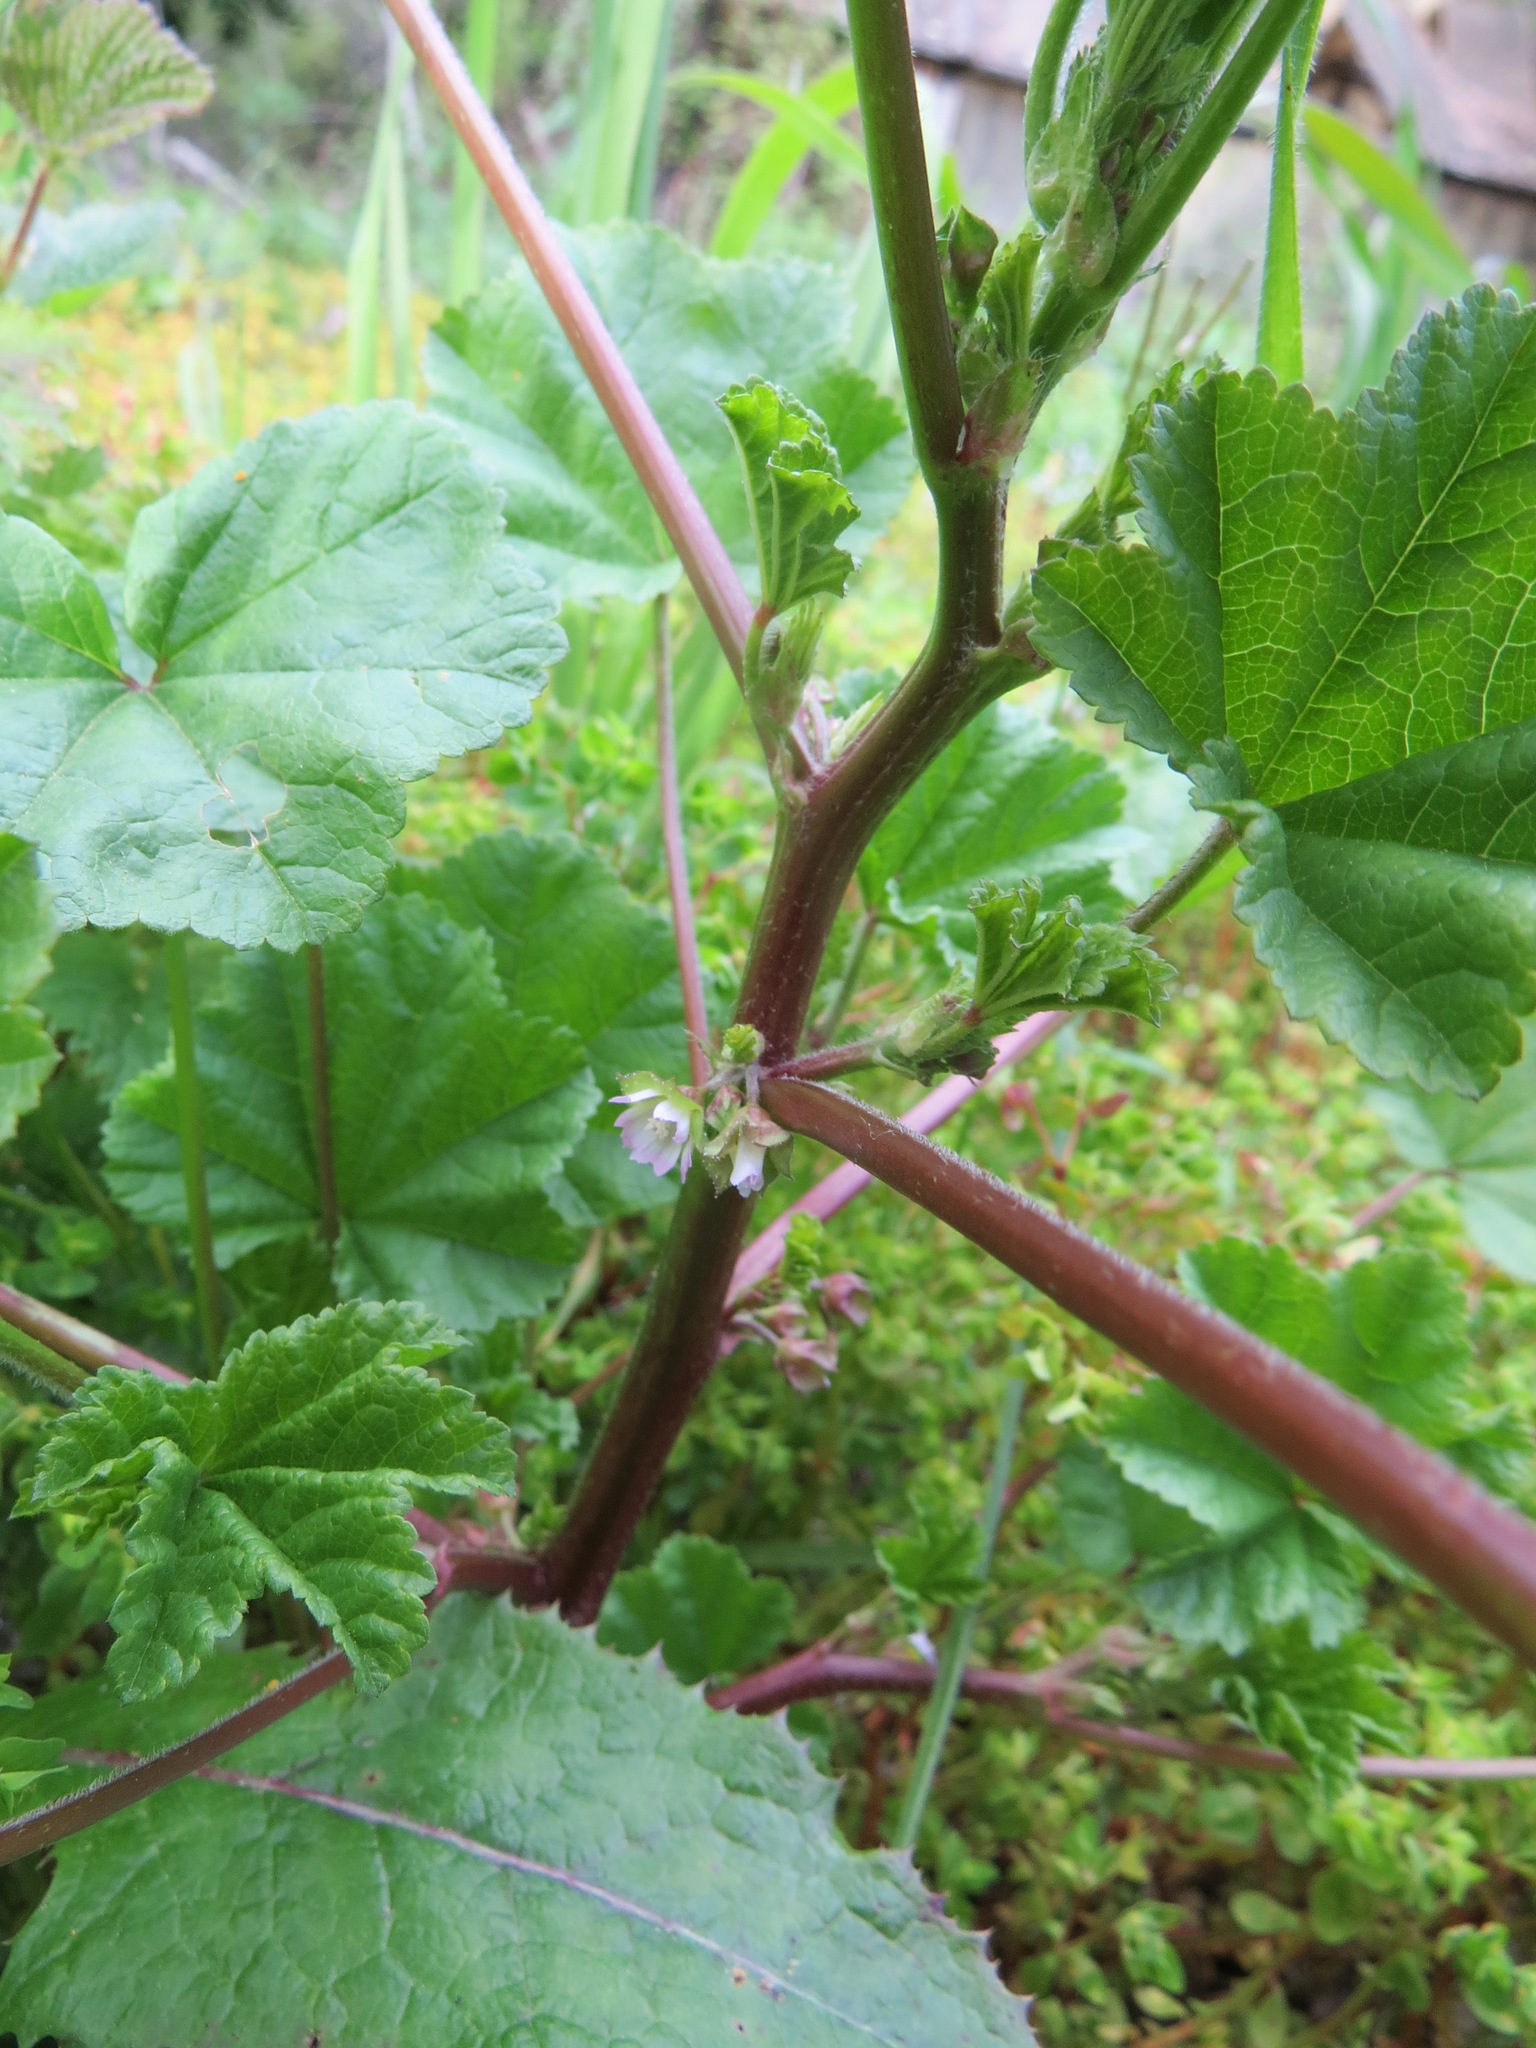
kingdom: Plantae
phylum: Tracheophyta
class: Magnoliopsida
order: Malvales
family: Malvaceae
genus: Malva
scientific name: Malva parviflora
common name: Least mallow
